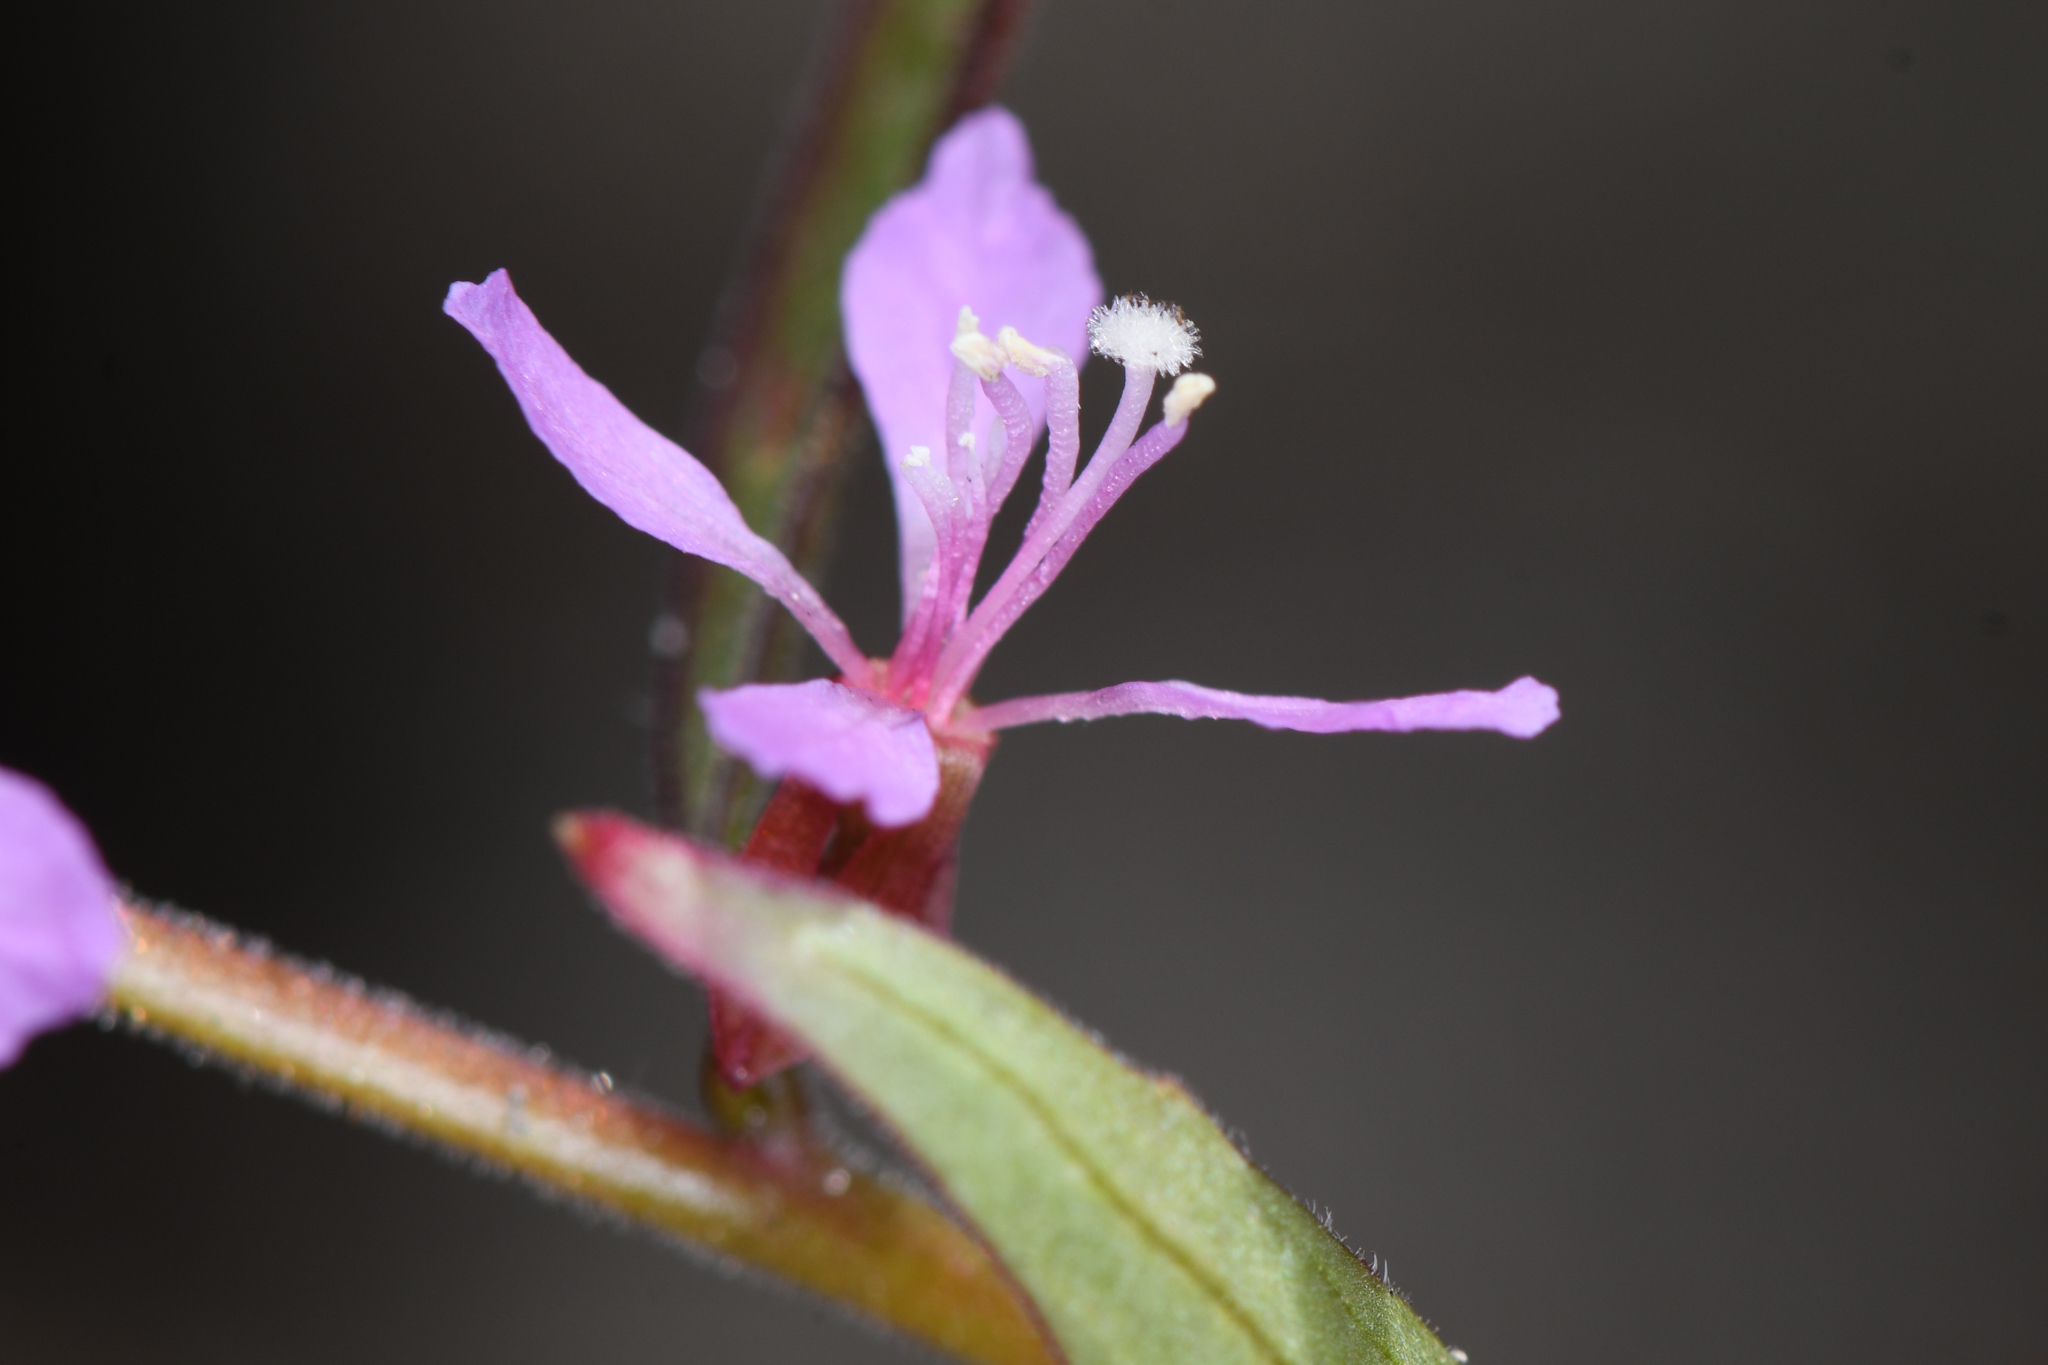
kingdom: Plantae
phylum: Tracheophyta
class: Magnoliopsida
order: Myrtales
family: Onagraceae
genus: Clarkia
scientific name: Clarkia heterandra
